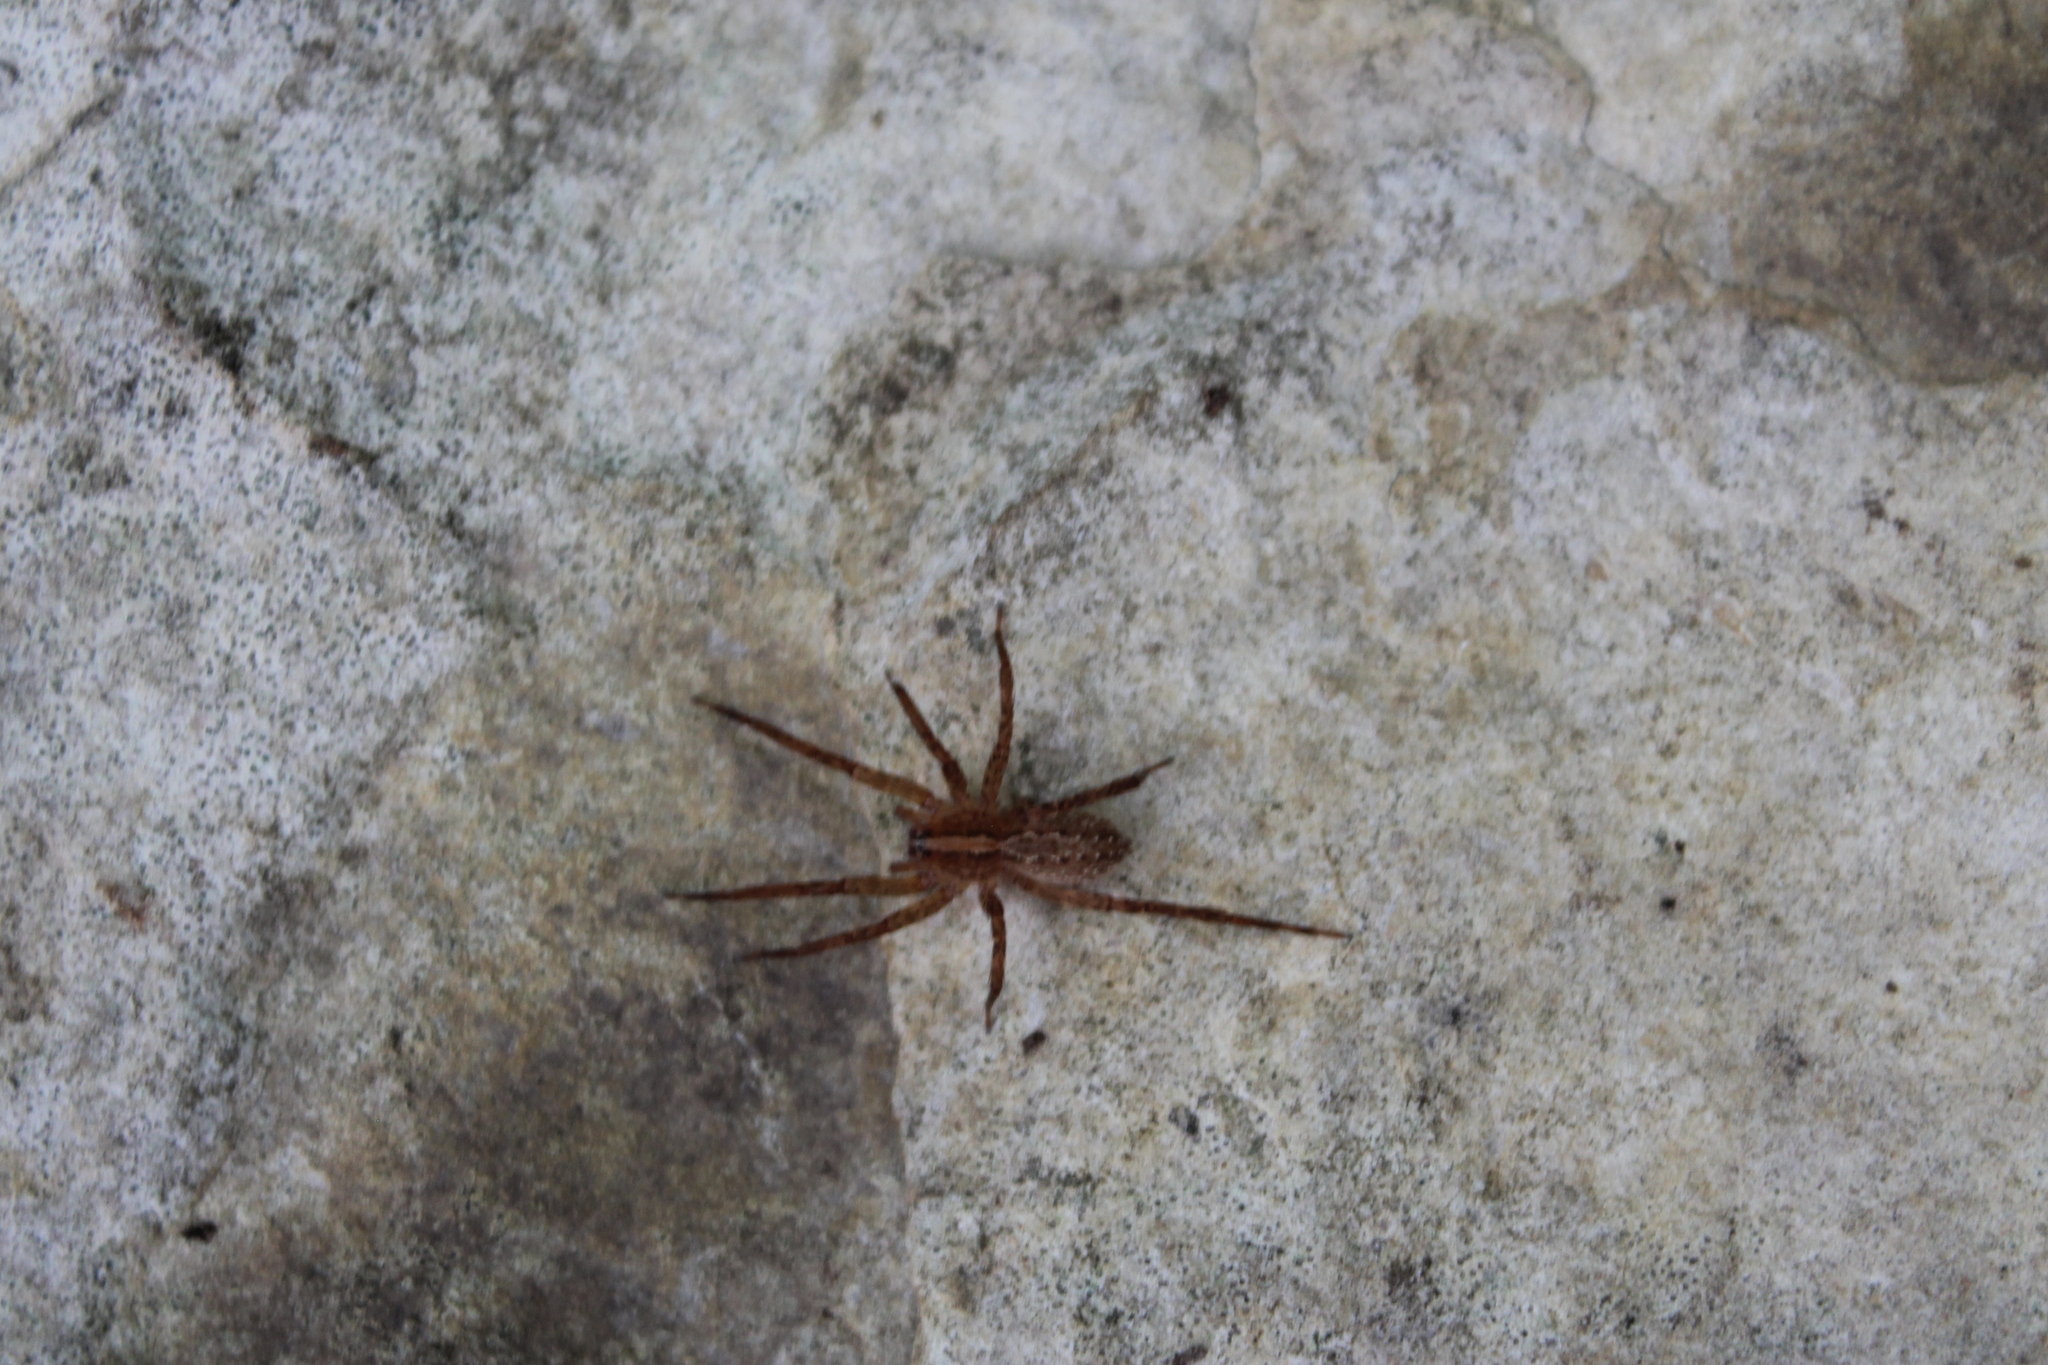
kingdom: Animalia
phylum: Arthropoda
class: Arachnida
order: Araneae
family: Ctenidae
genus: Anahita
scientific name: Anahita punctulata
